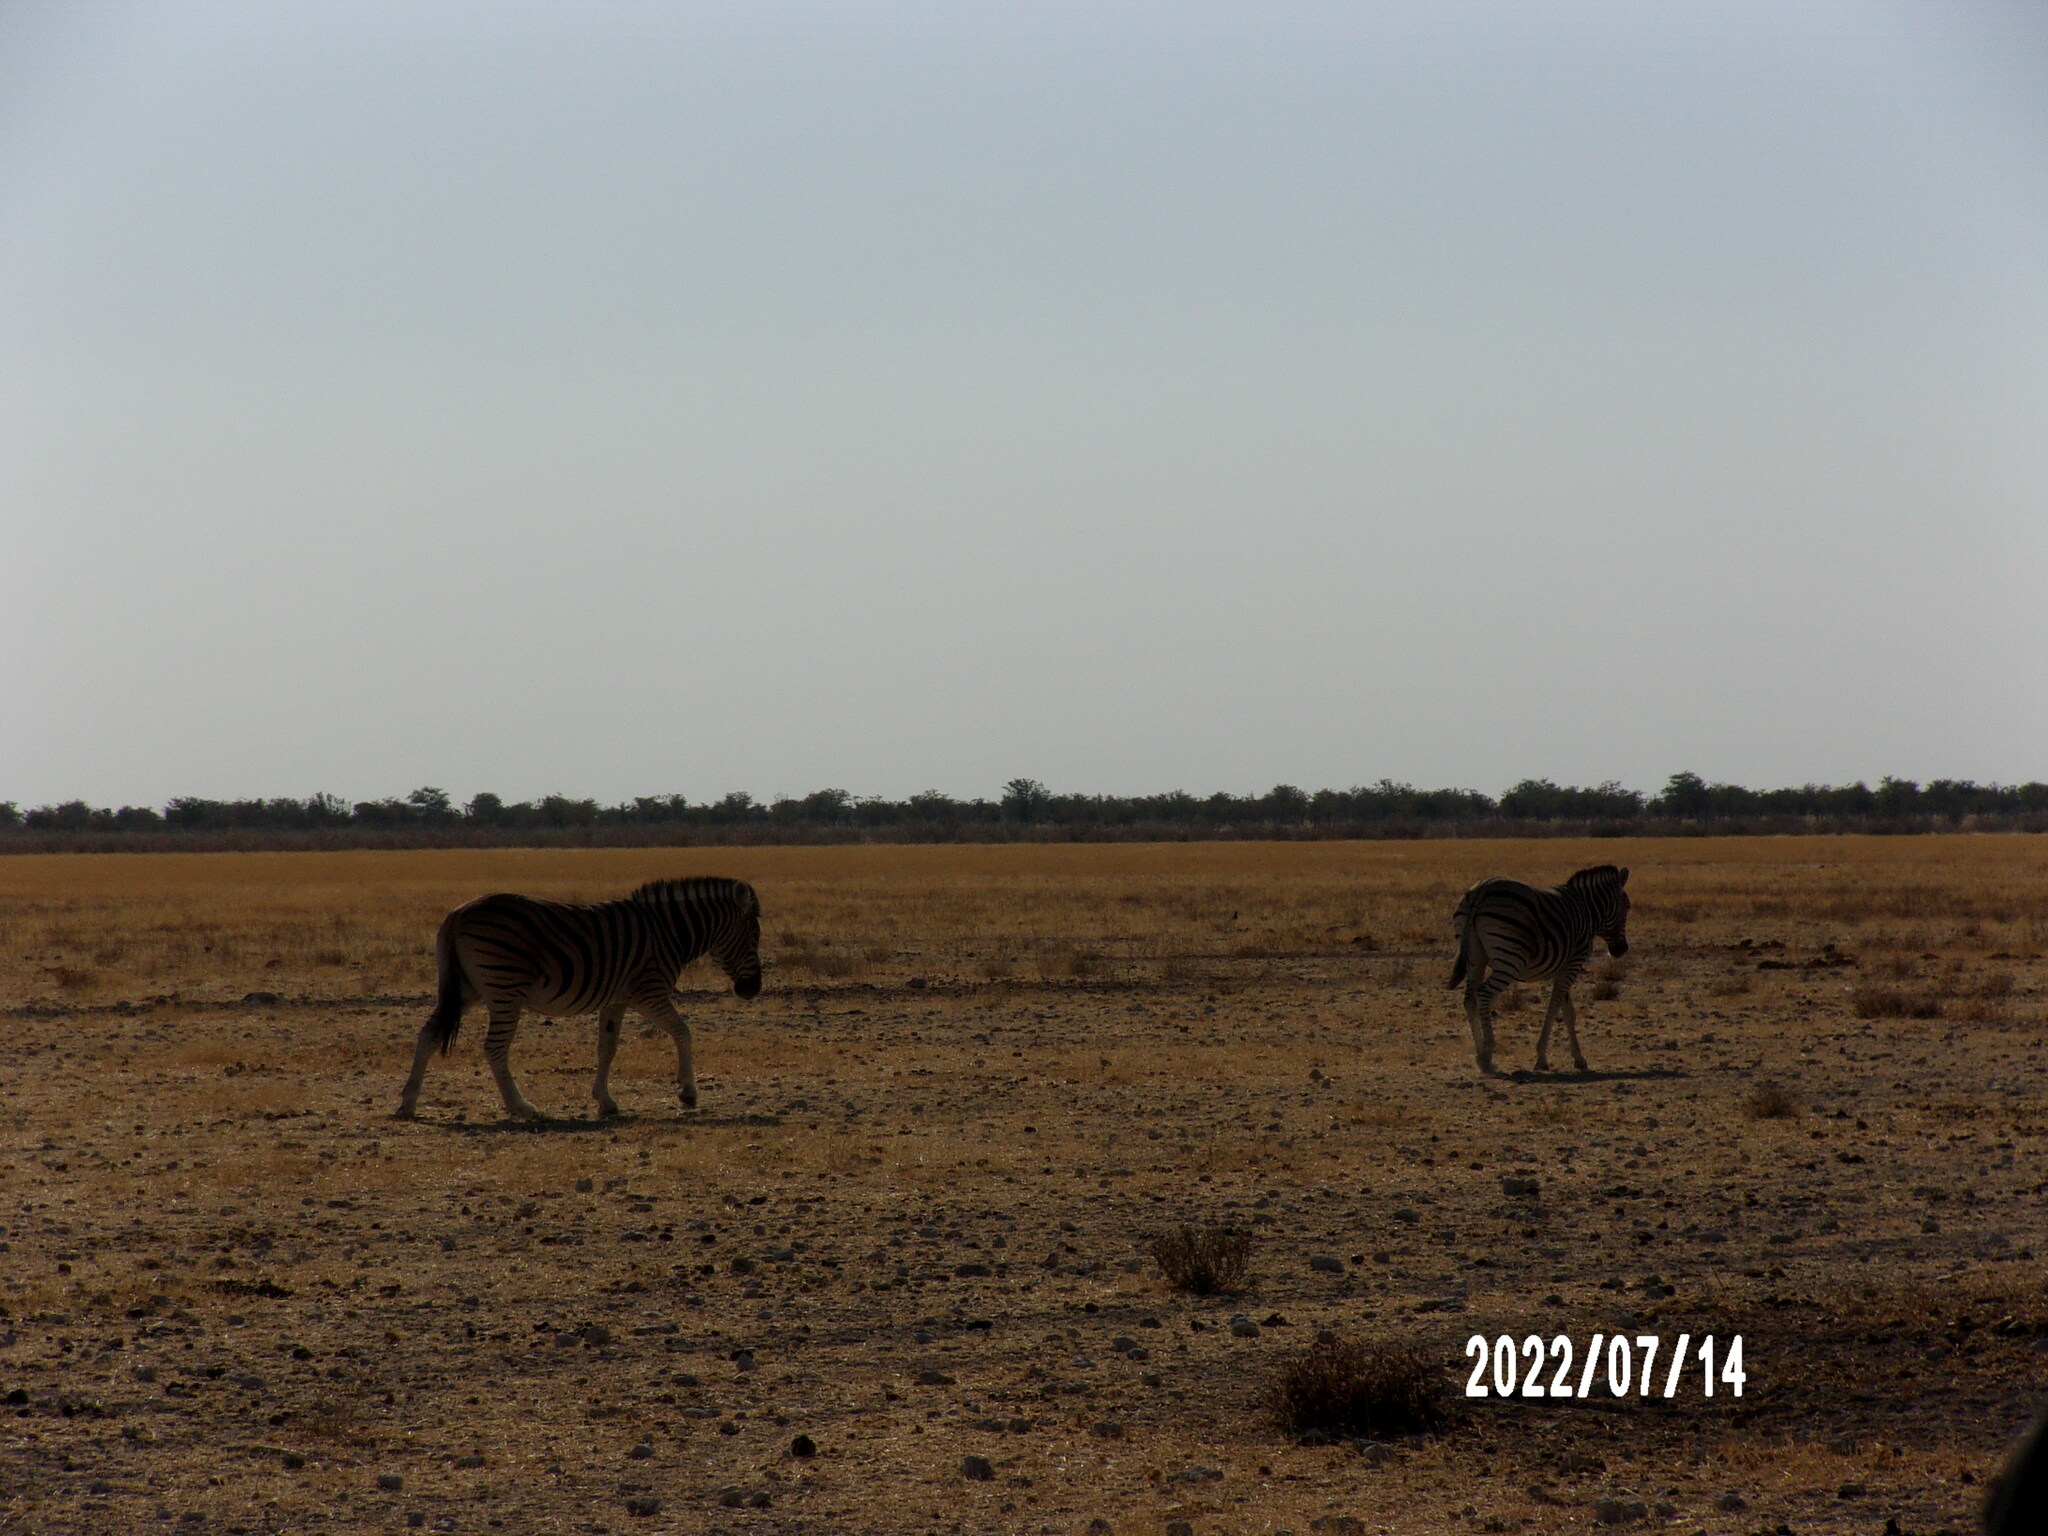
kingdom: Animalia
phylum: Chordata
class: Mammalia
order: Perissodactyla
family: Equidae
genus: Equus
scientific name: Equus quagga
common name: Plains zebra
